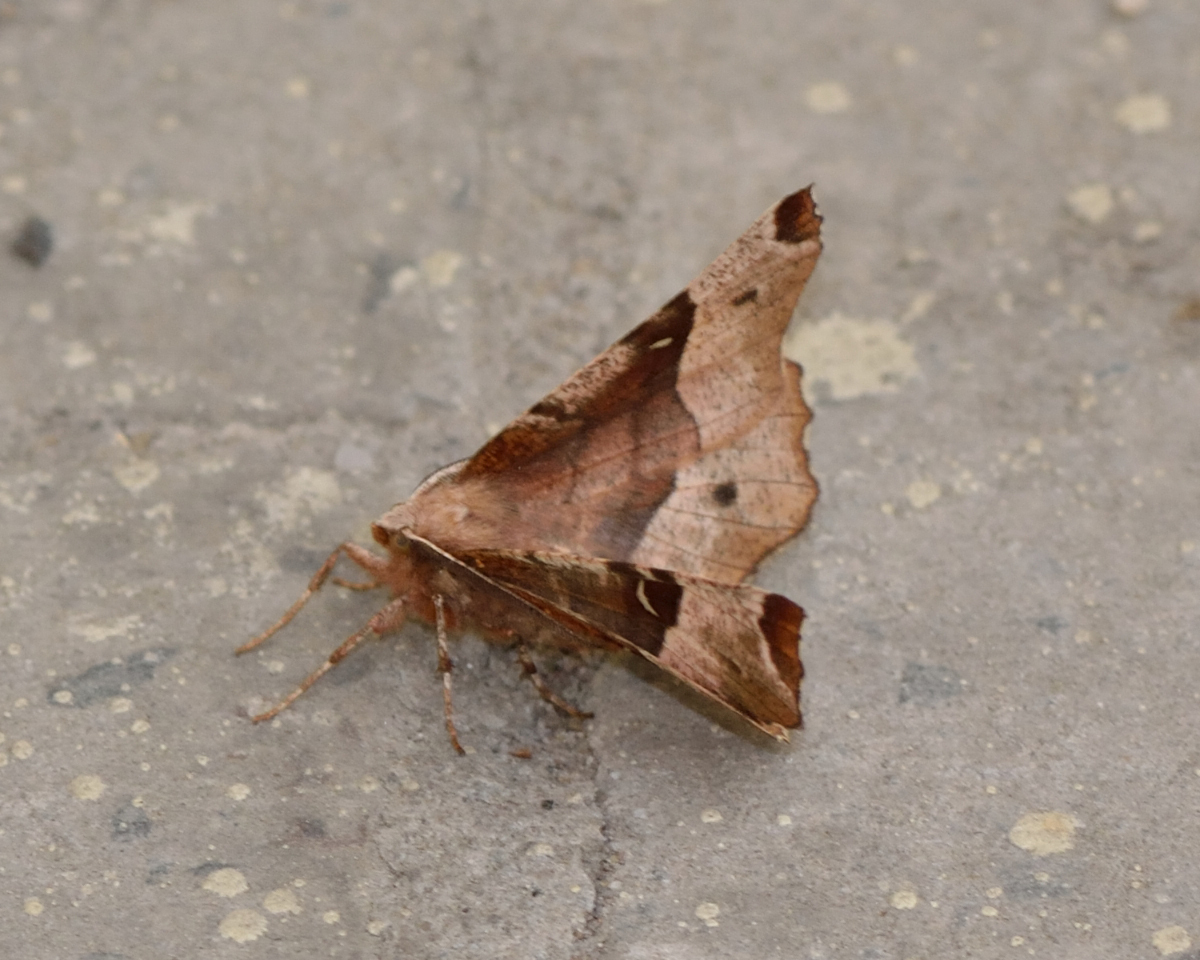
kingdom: Animalia
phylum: Arthropoda
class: Insecta
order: Lepidoptera
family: Geometridae
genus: Selenia
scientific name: Selenia tetralunaria
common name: Purple thorn
